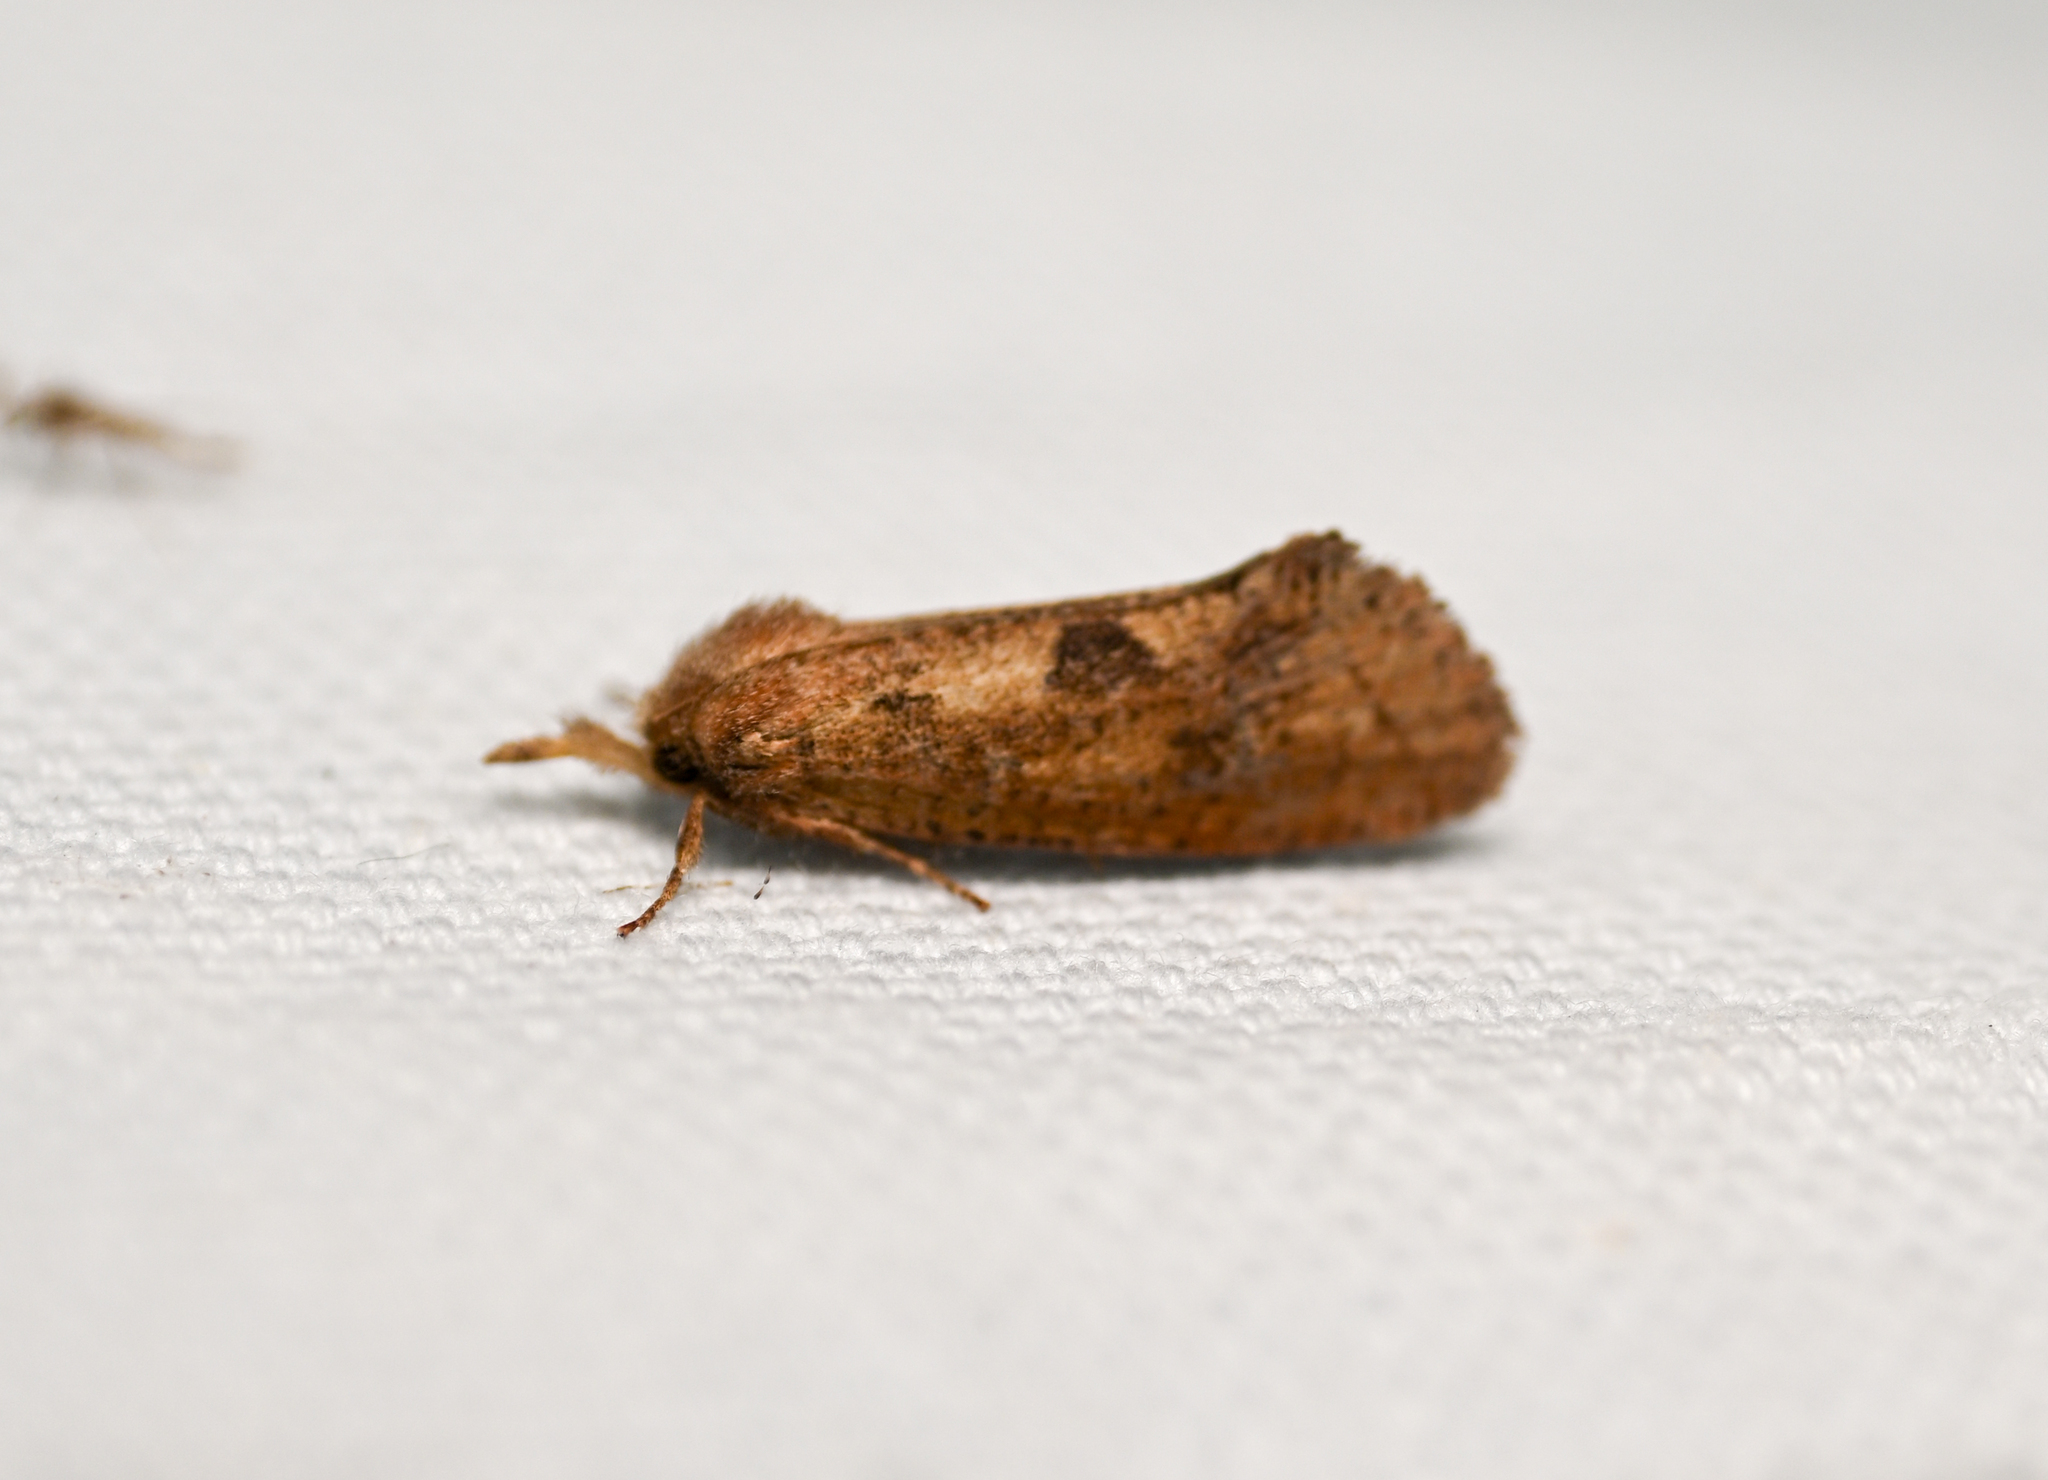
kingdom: Animalia
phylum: Arthropoda
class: Insecta
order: Lepidoptera
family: Tineidae
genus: Acrolophus
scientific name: Acrolophus plumifrontella
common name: Eastern grass tubeworm moth
